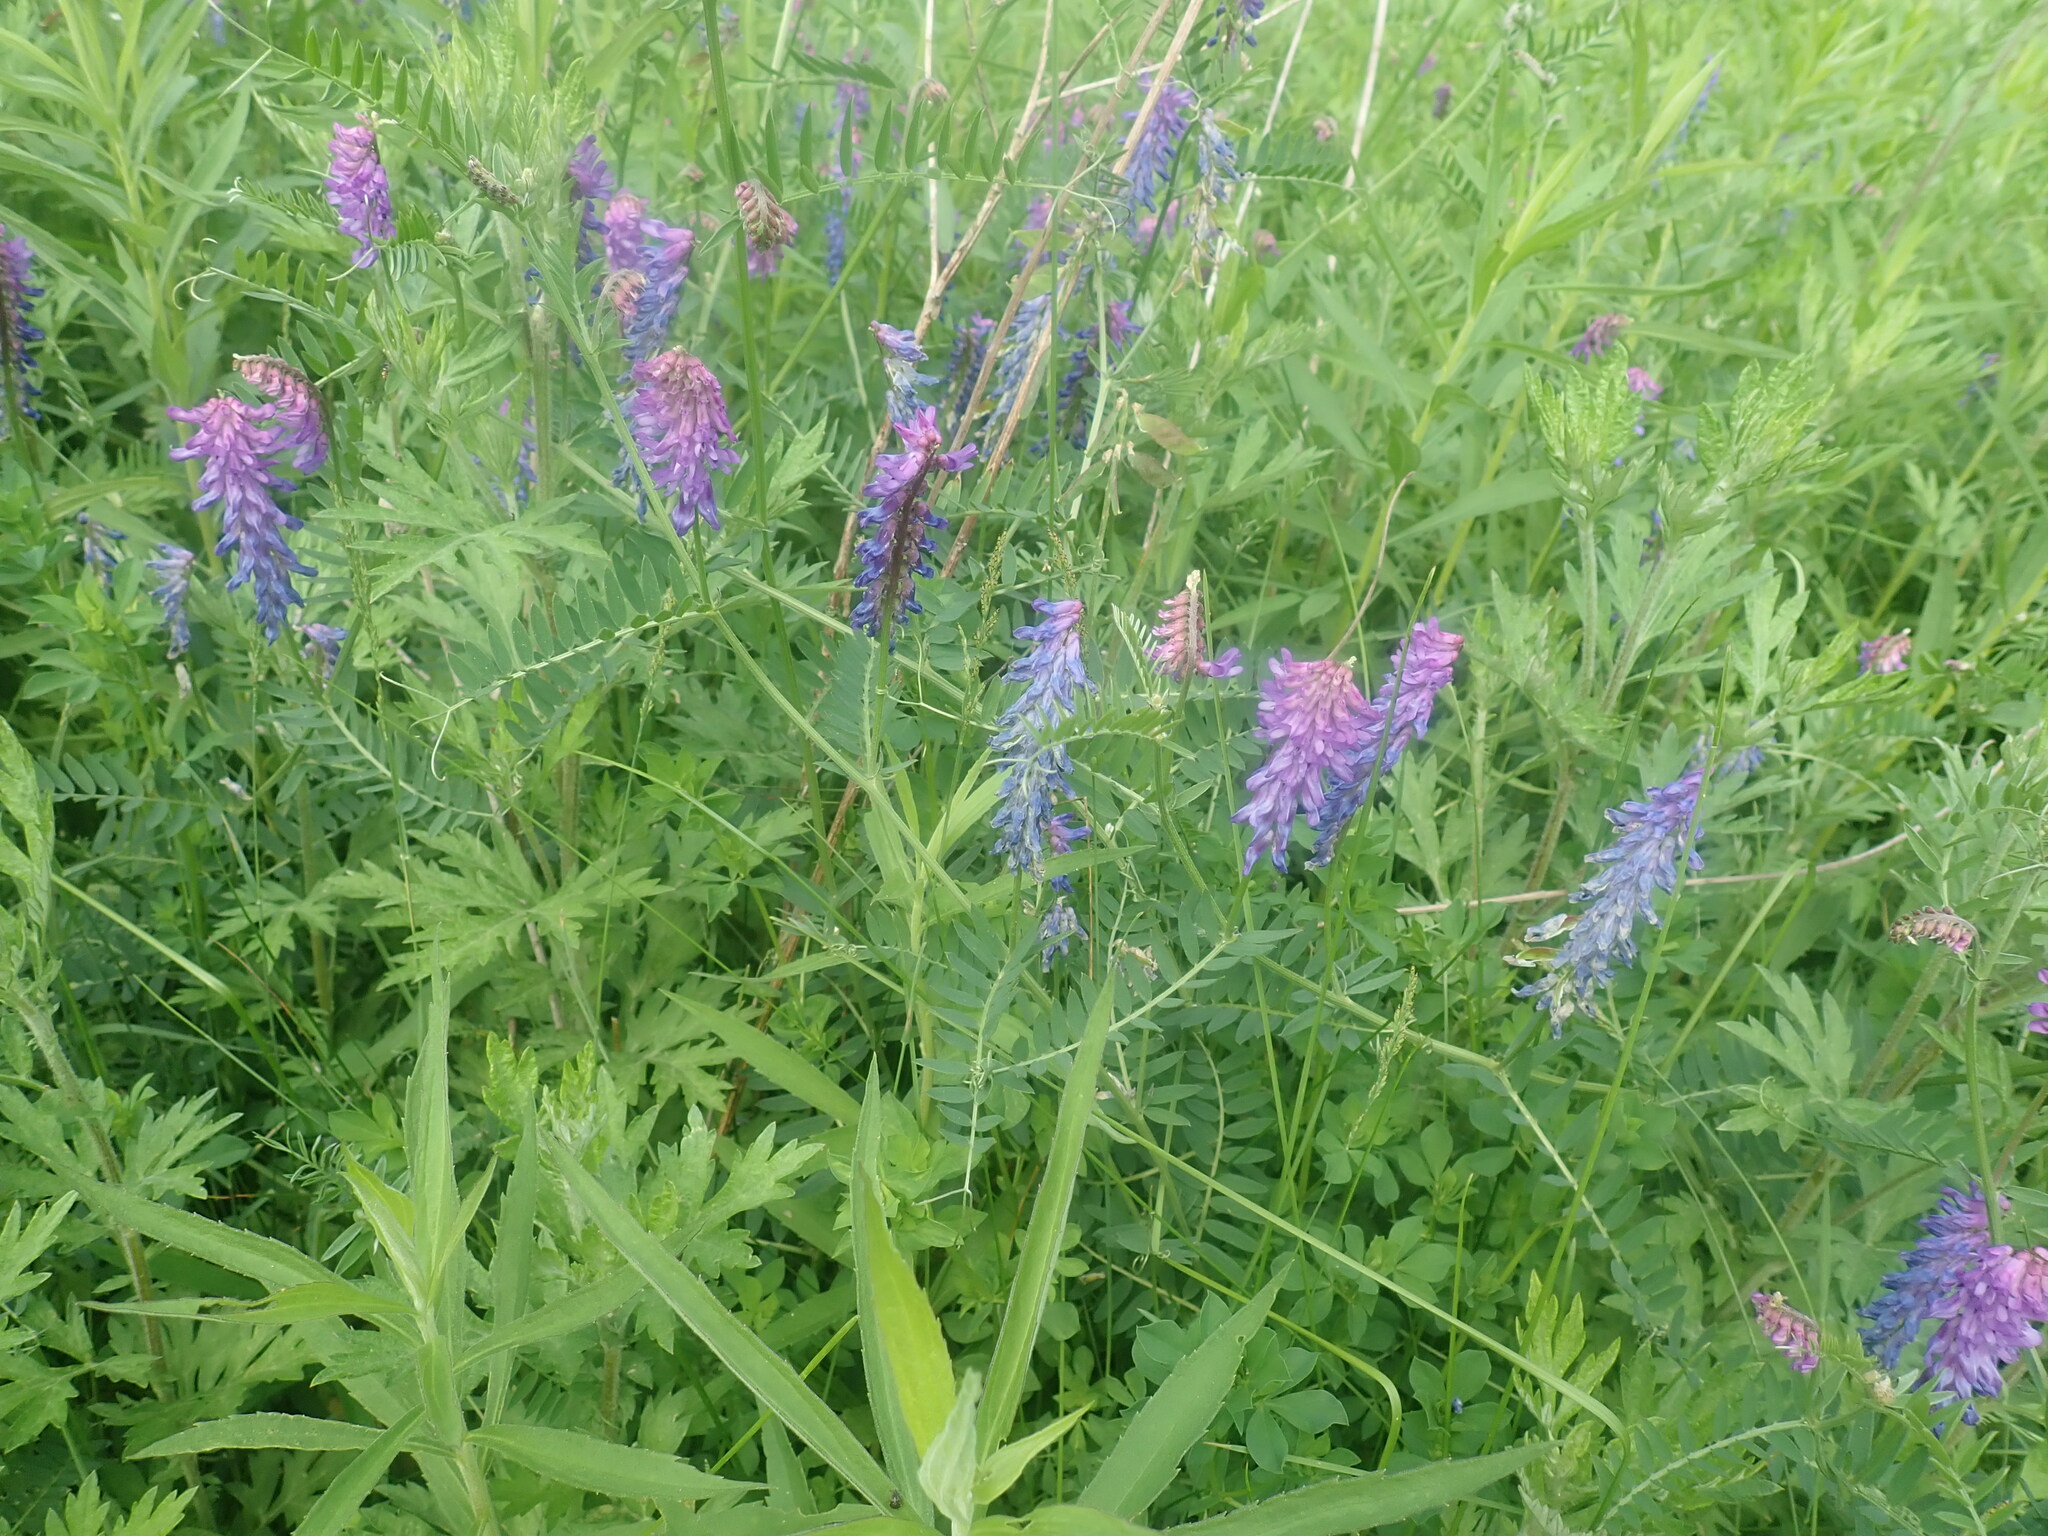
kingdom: Plantae
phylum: Tracheophyta
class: Magnoliopsida
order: Fabales
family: Fabaceae
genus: Vicia
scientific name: Vicia cracca
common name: Bird vetch
